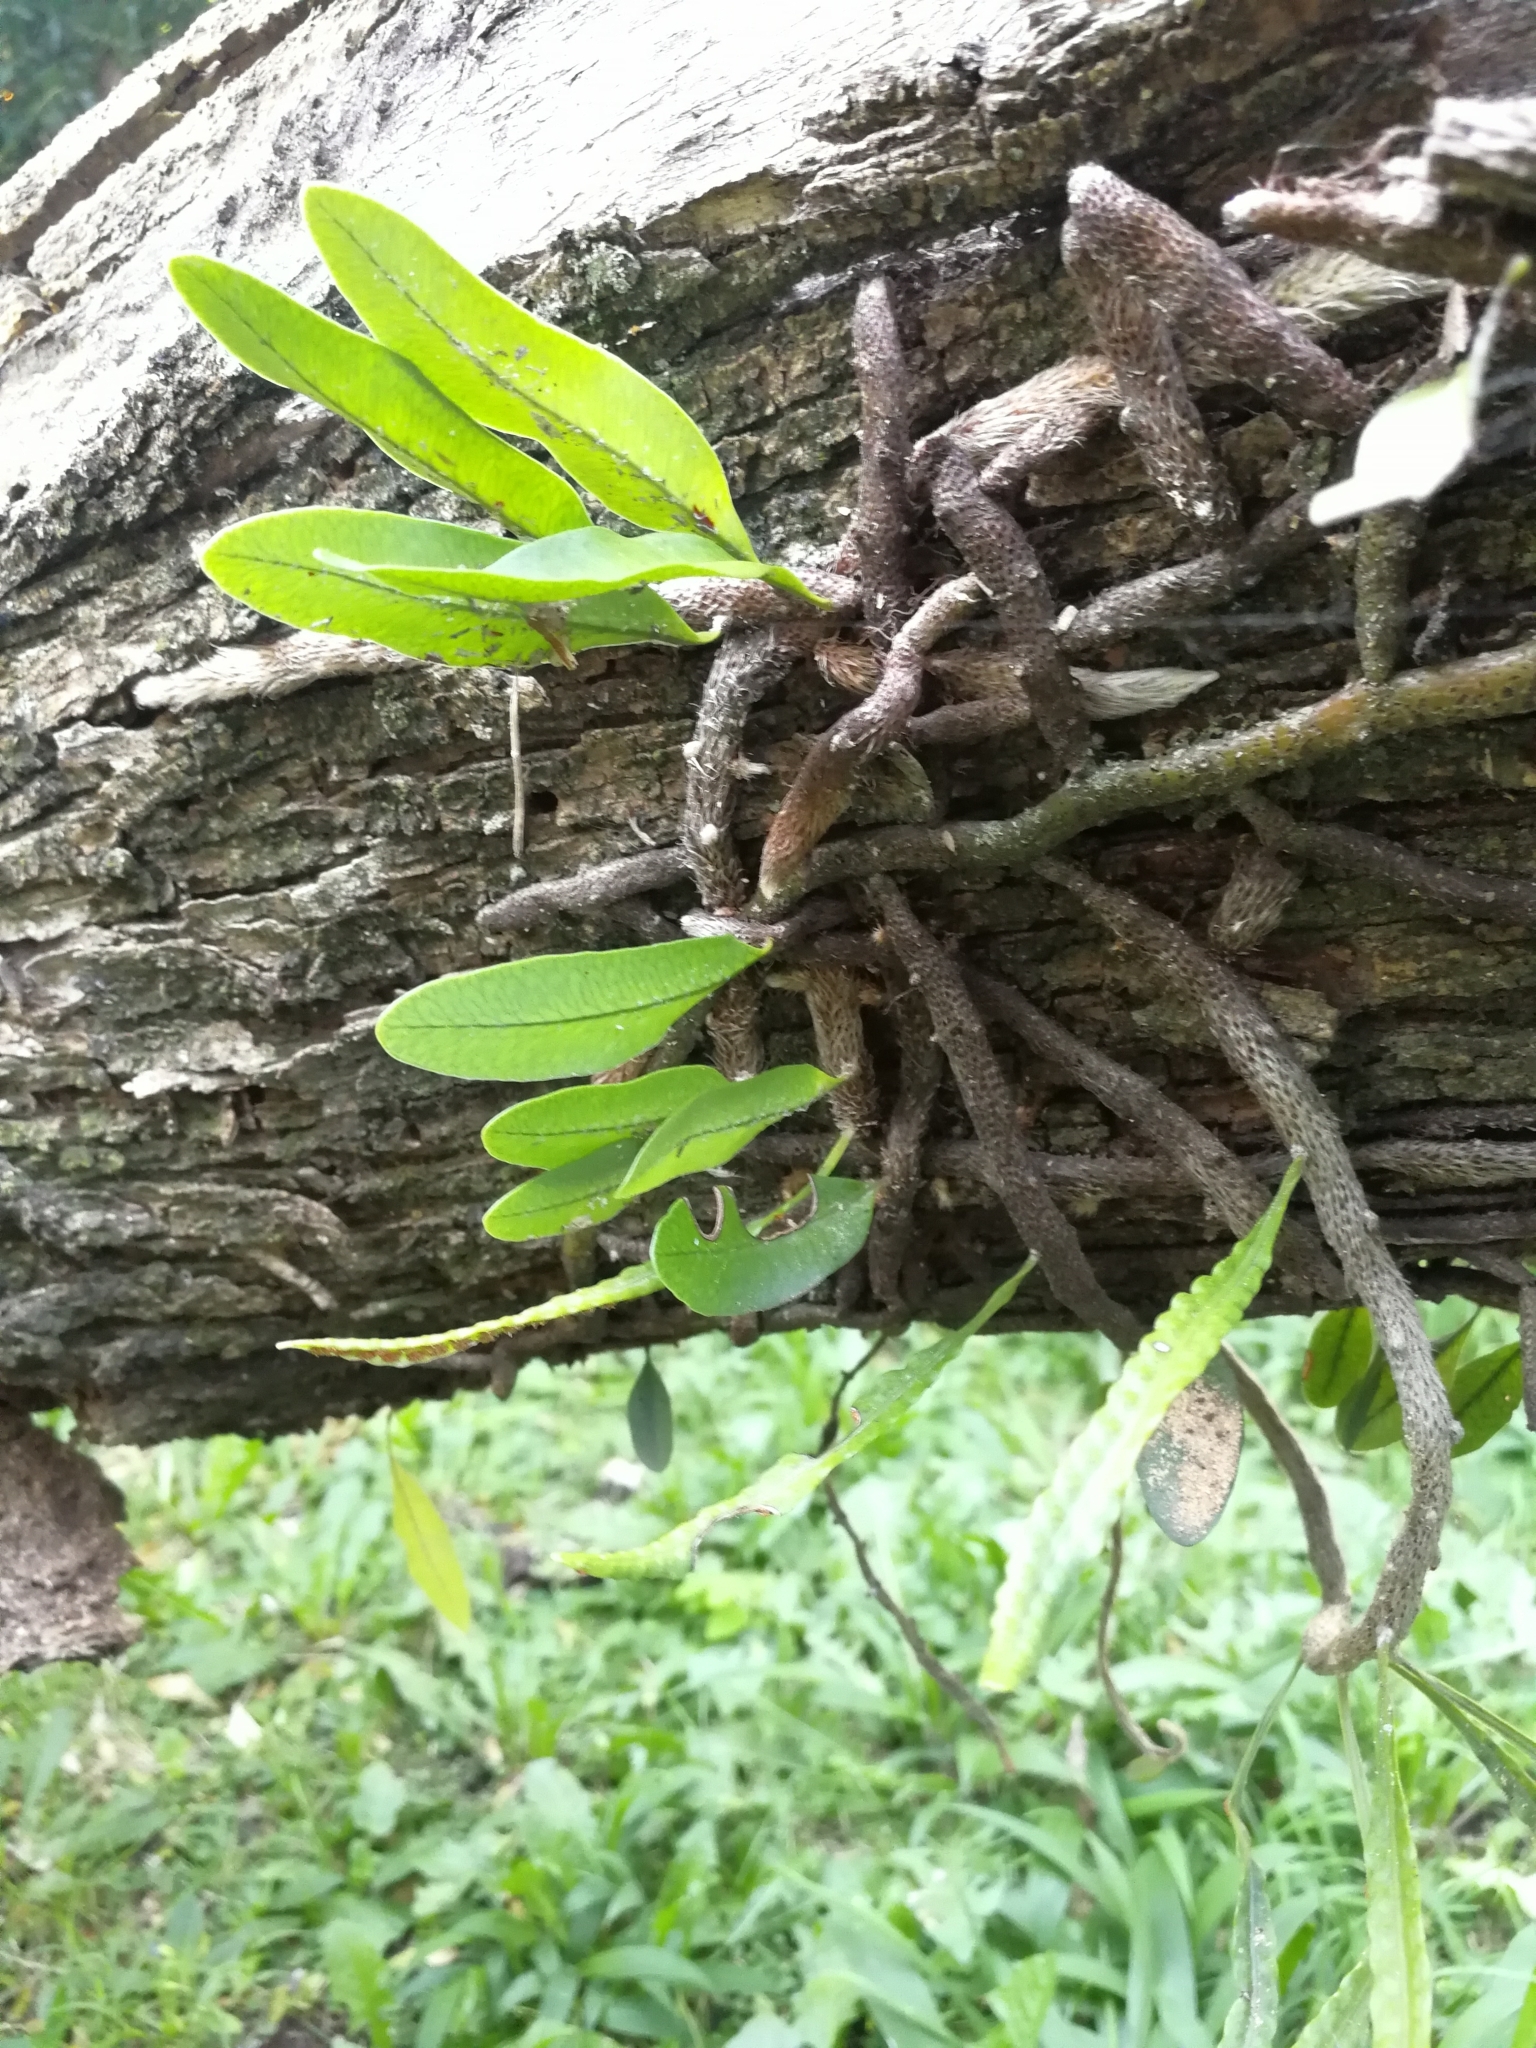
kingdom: Plantae
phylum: Tracheophyta
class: Polypodiopsida
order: Polypodiales
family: Polypodiaceae
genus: Microgramma
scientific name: Microgramma mortoniana
